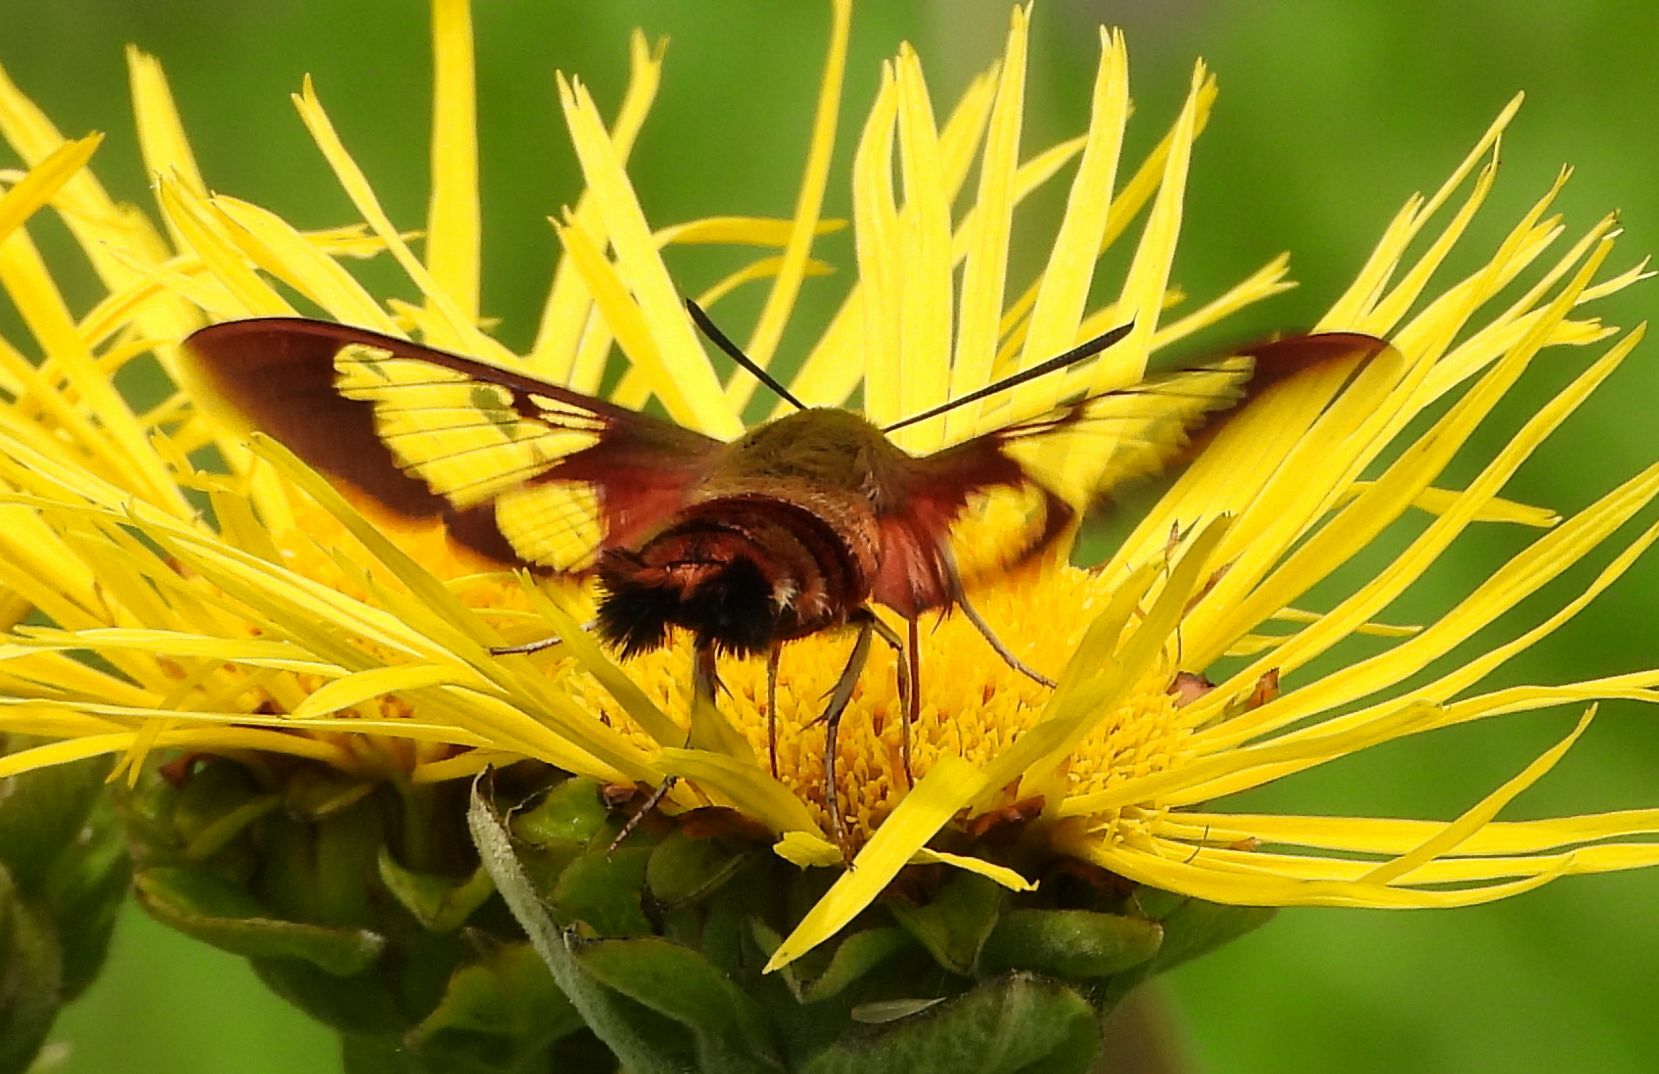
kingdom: Animalia
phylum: Arthropoda
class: Insecta
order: Lepidoptera
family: Sphingidae
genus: Hemaris
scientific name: Hemaris thysbe
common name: Common clear-wing
